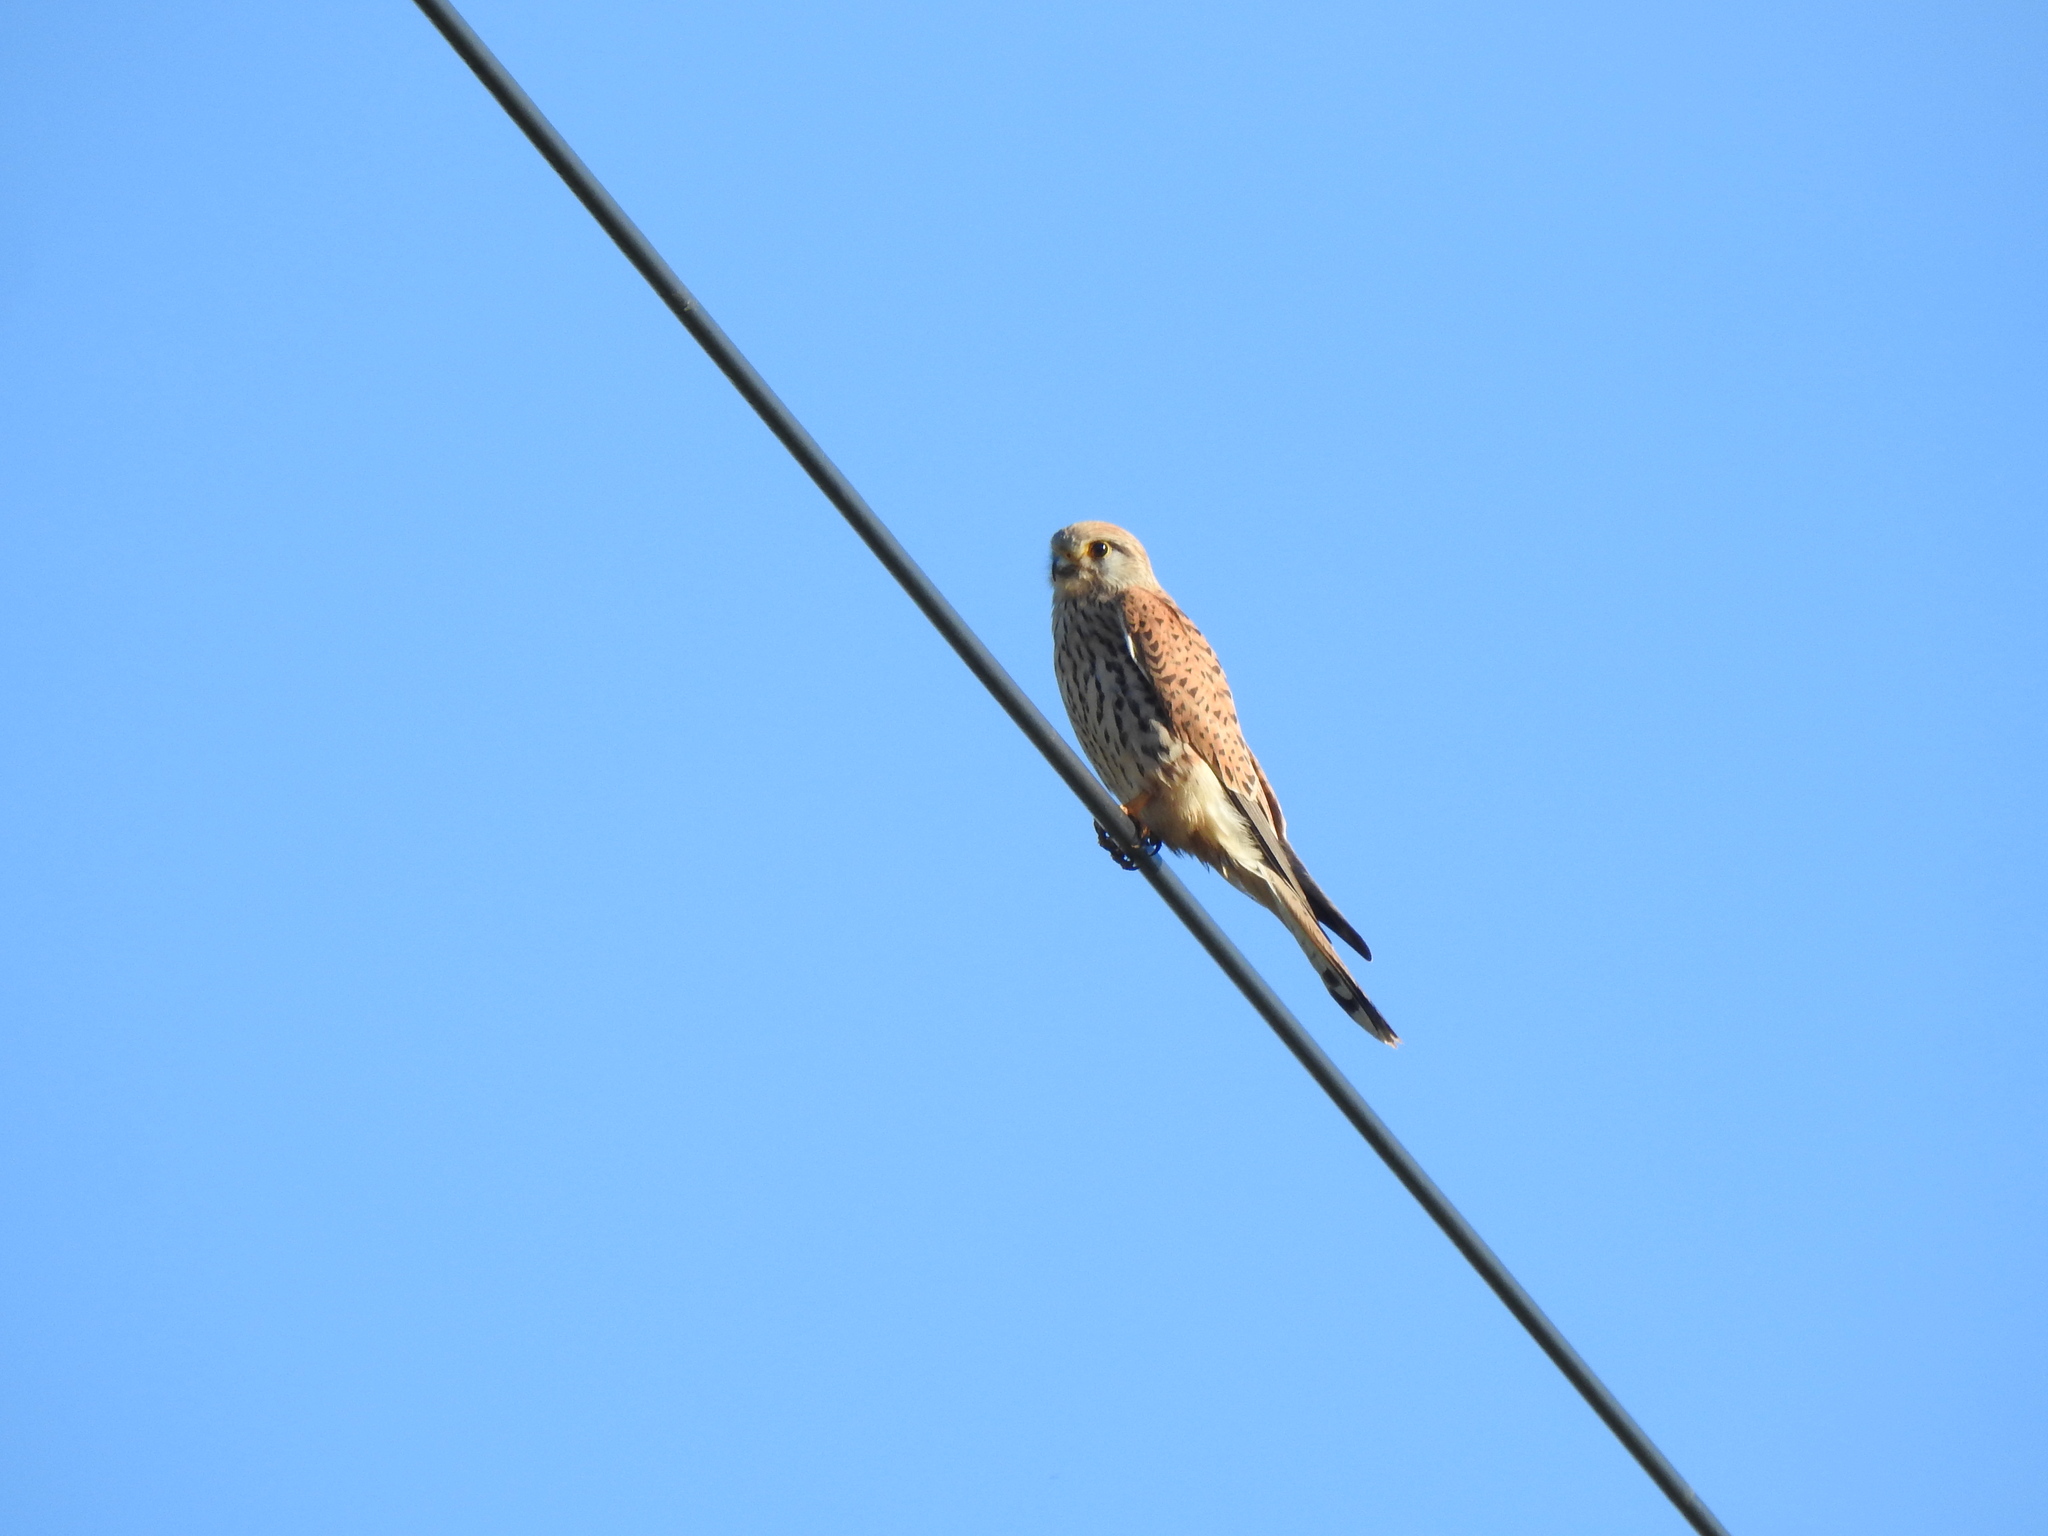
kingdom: Animalia
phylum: Chordata
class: Aves
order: Falconiformes
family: Falconidae
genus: Falco
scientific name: Falco tinnunculus
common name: Common kestrel
